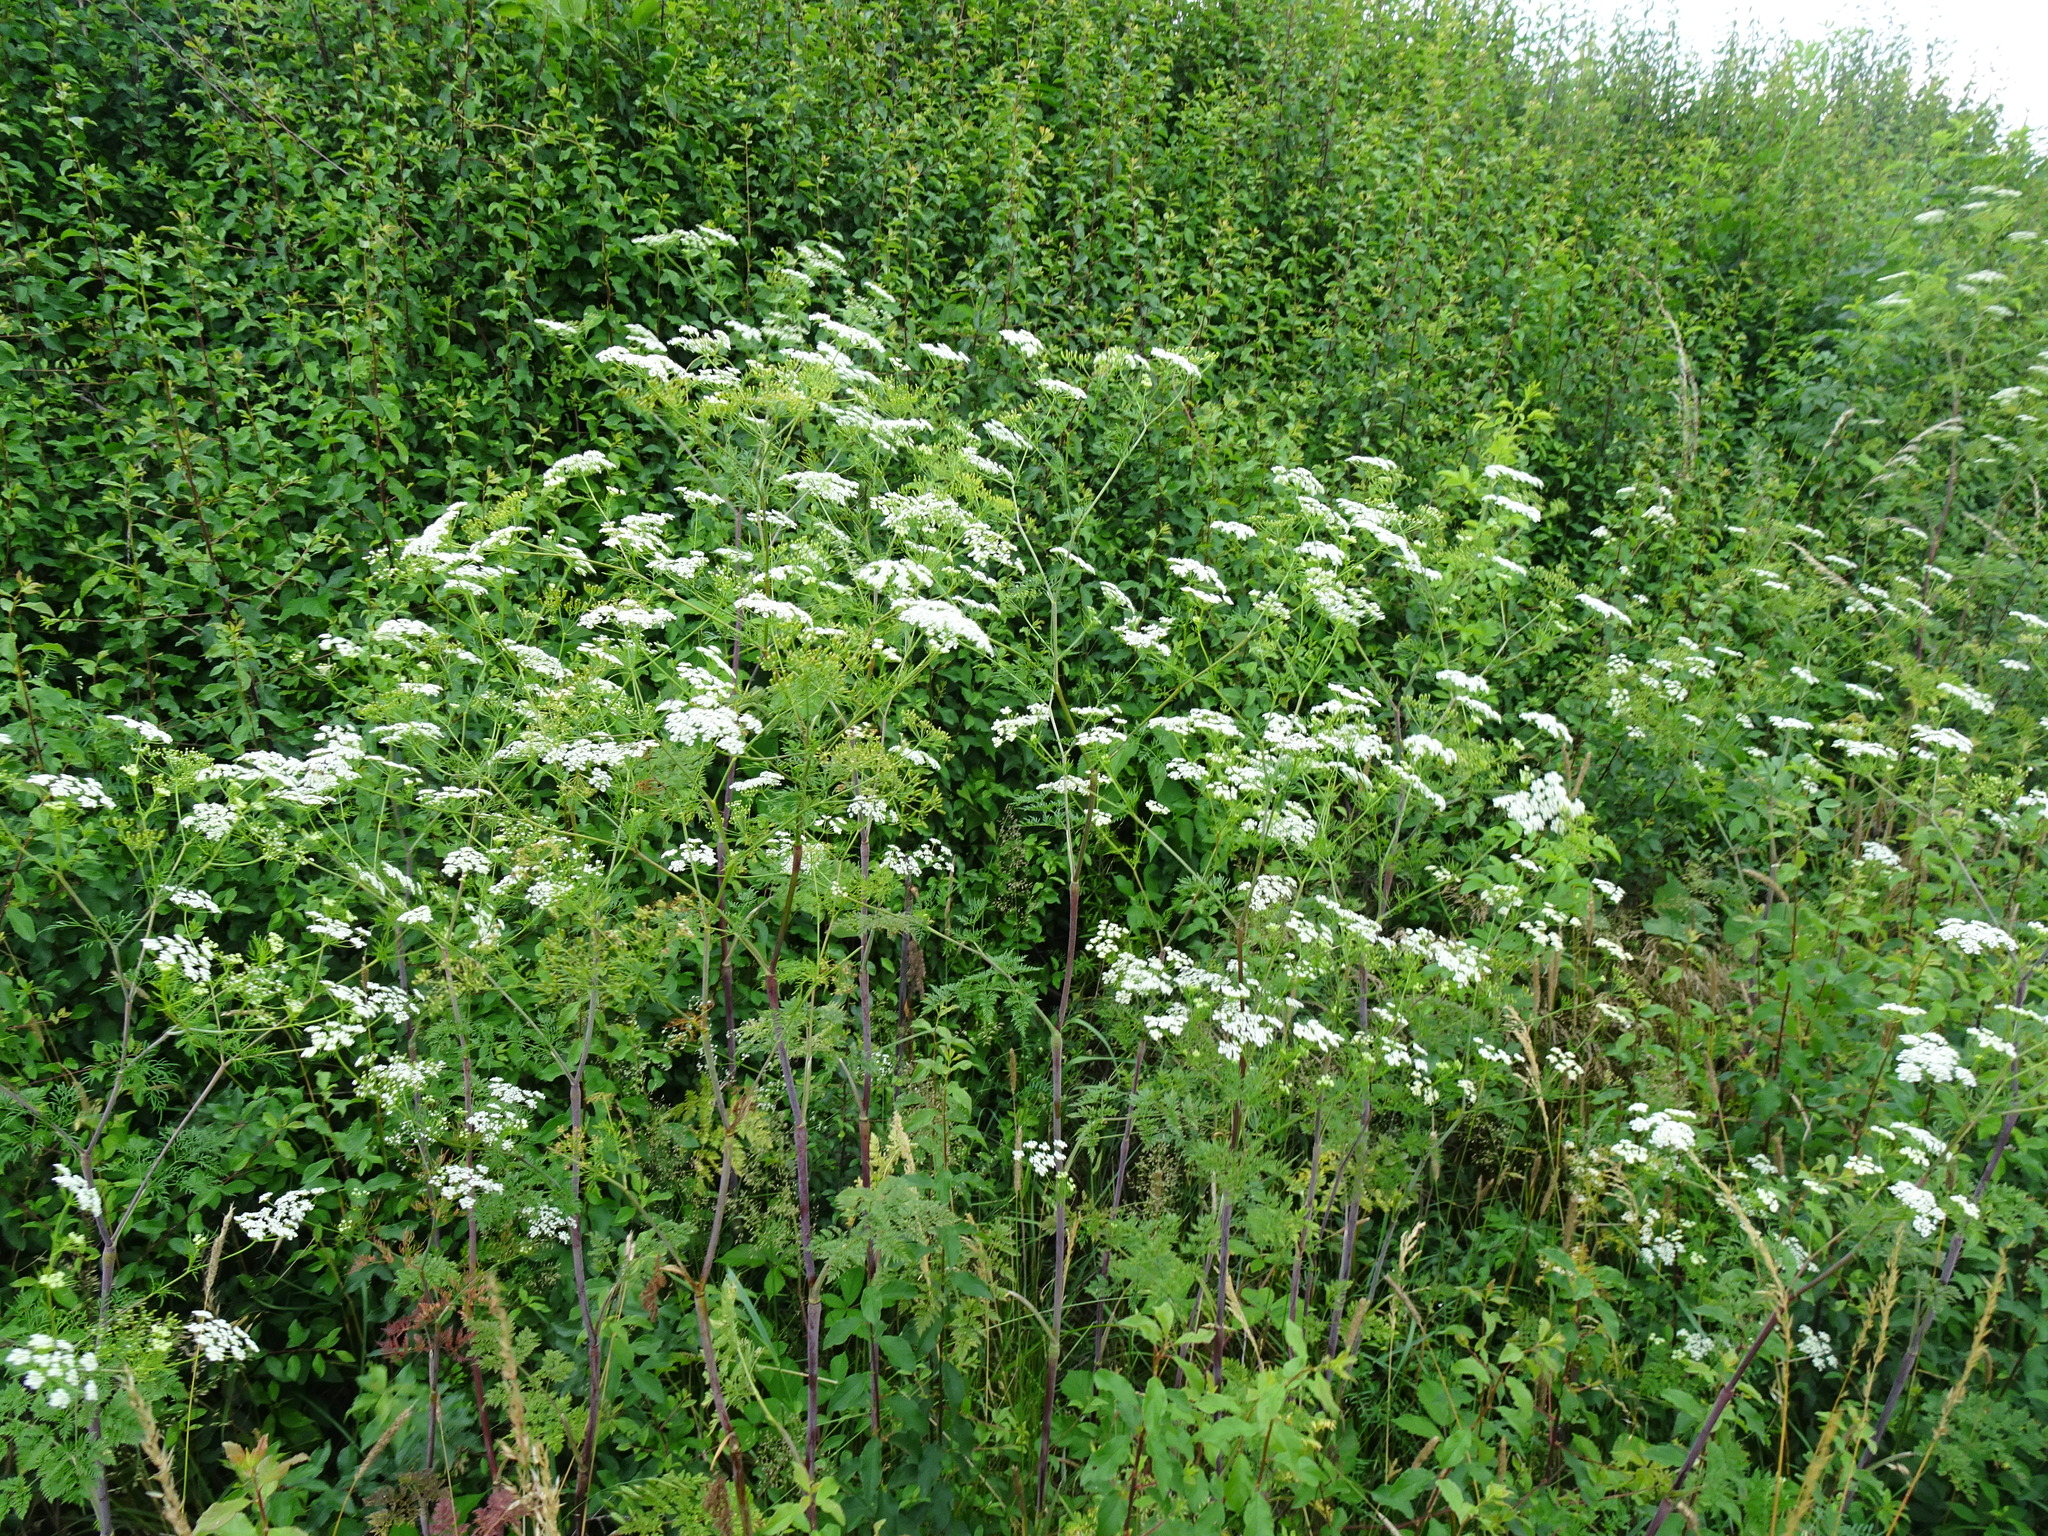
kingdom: Plantae
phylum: Tracheophyta
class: Magnoliopsida
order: Apiales
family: Apiaceae
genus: Chaerophyllum
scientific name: Chaerophyllum bulbosum
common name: Bulbous chervil
